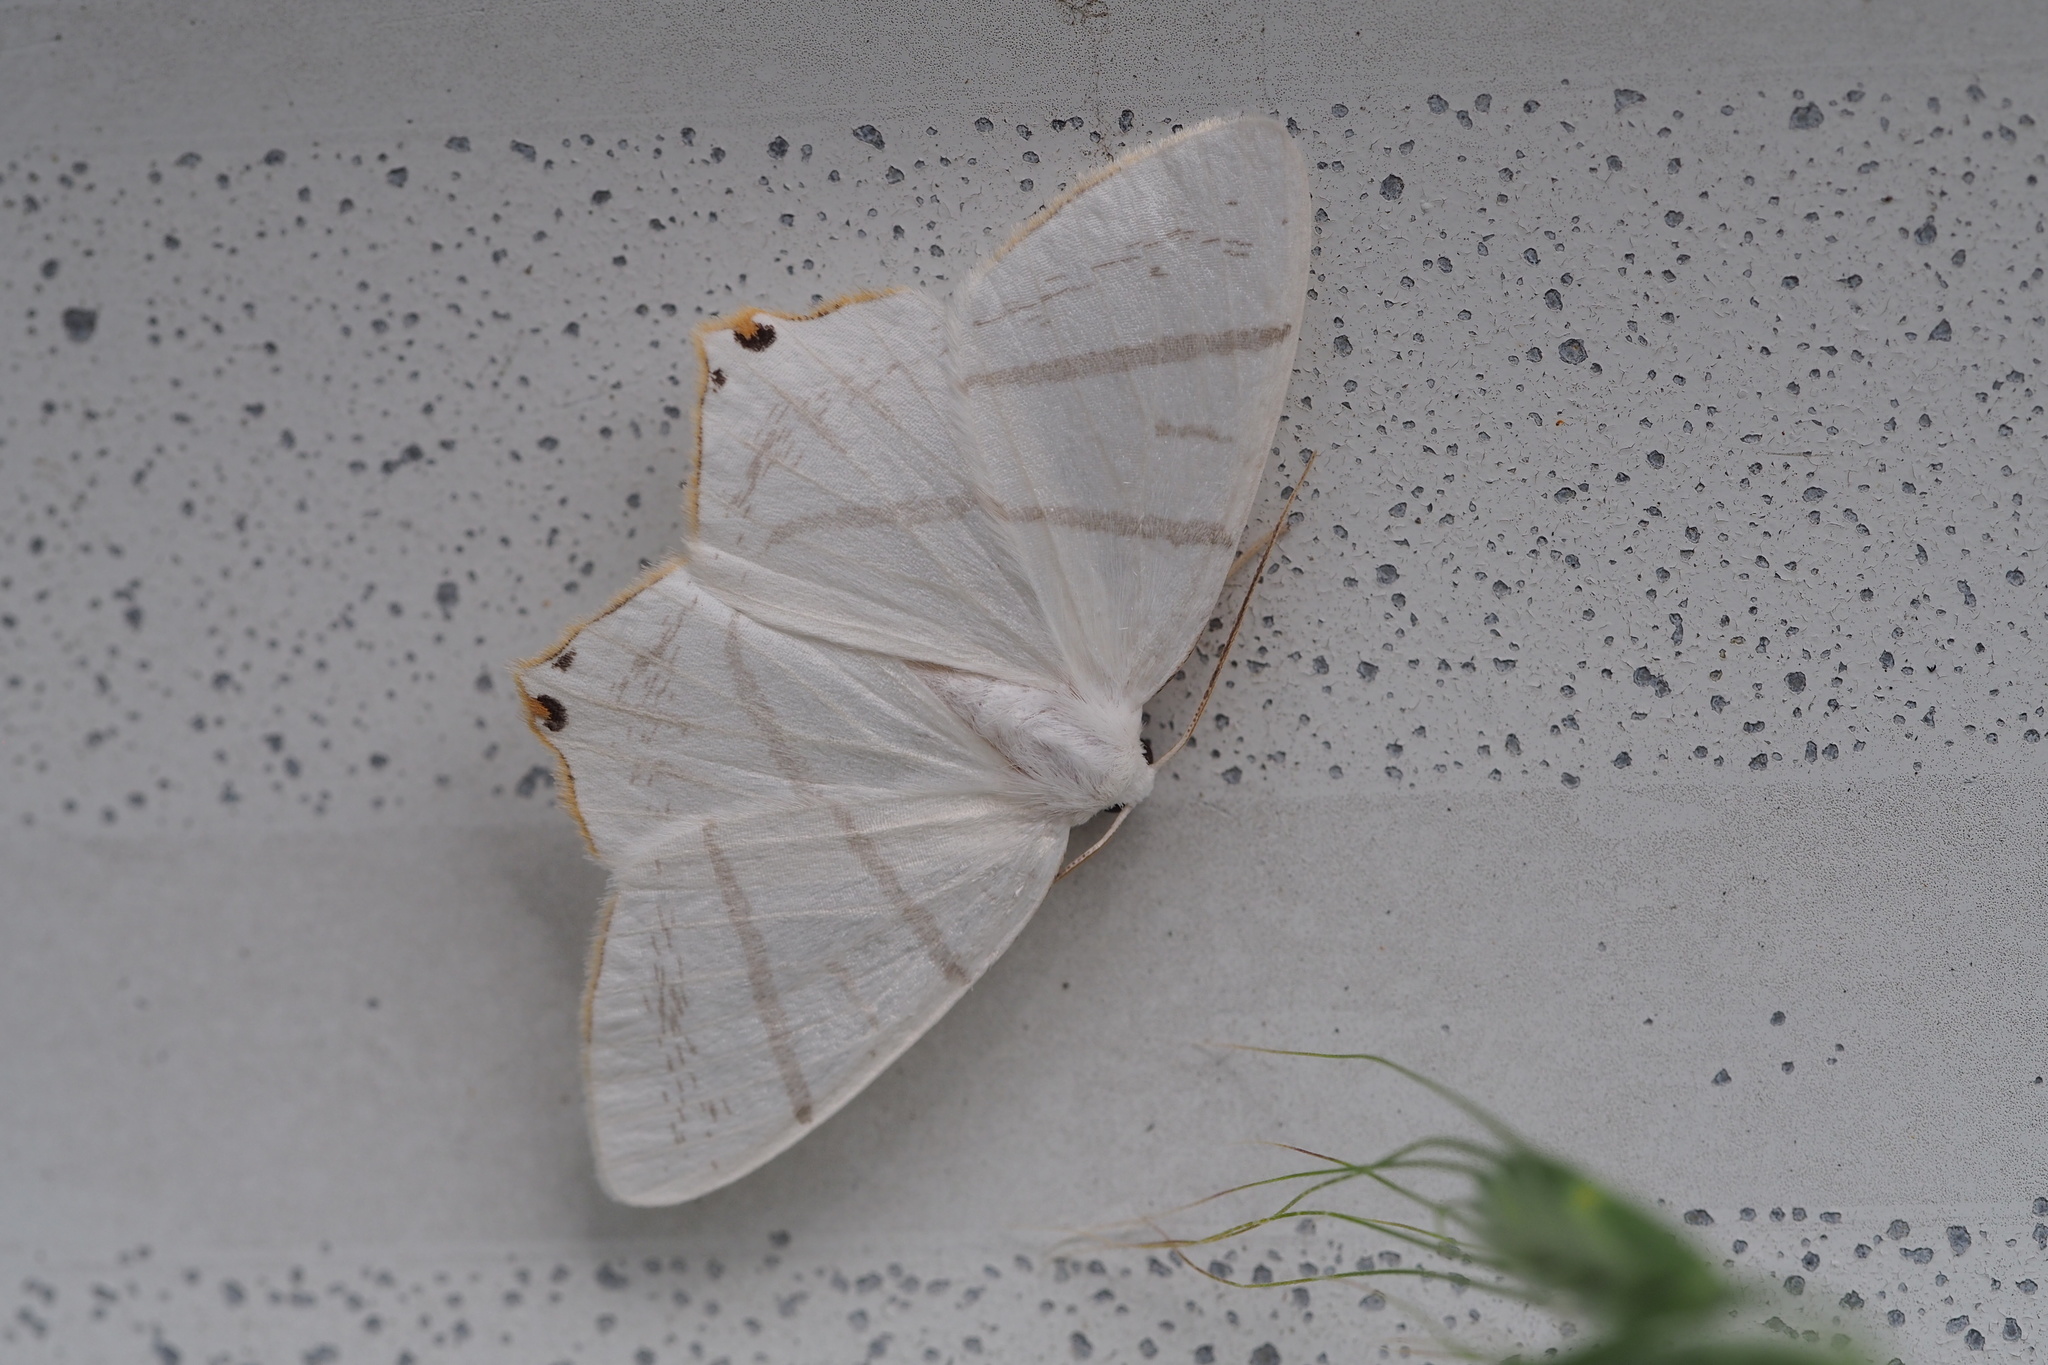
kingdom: Animalia
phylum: Arthropoda
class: Insecta
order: Lepidoptera
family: Geometridae
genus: Ourapteryx
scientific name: Ourapteryx obtusicauda
